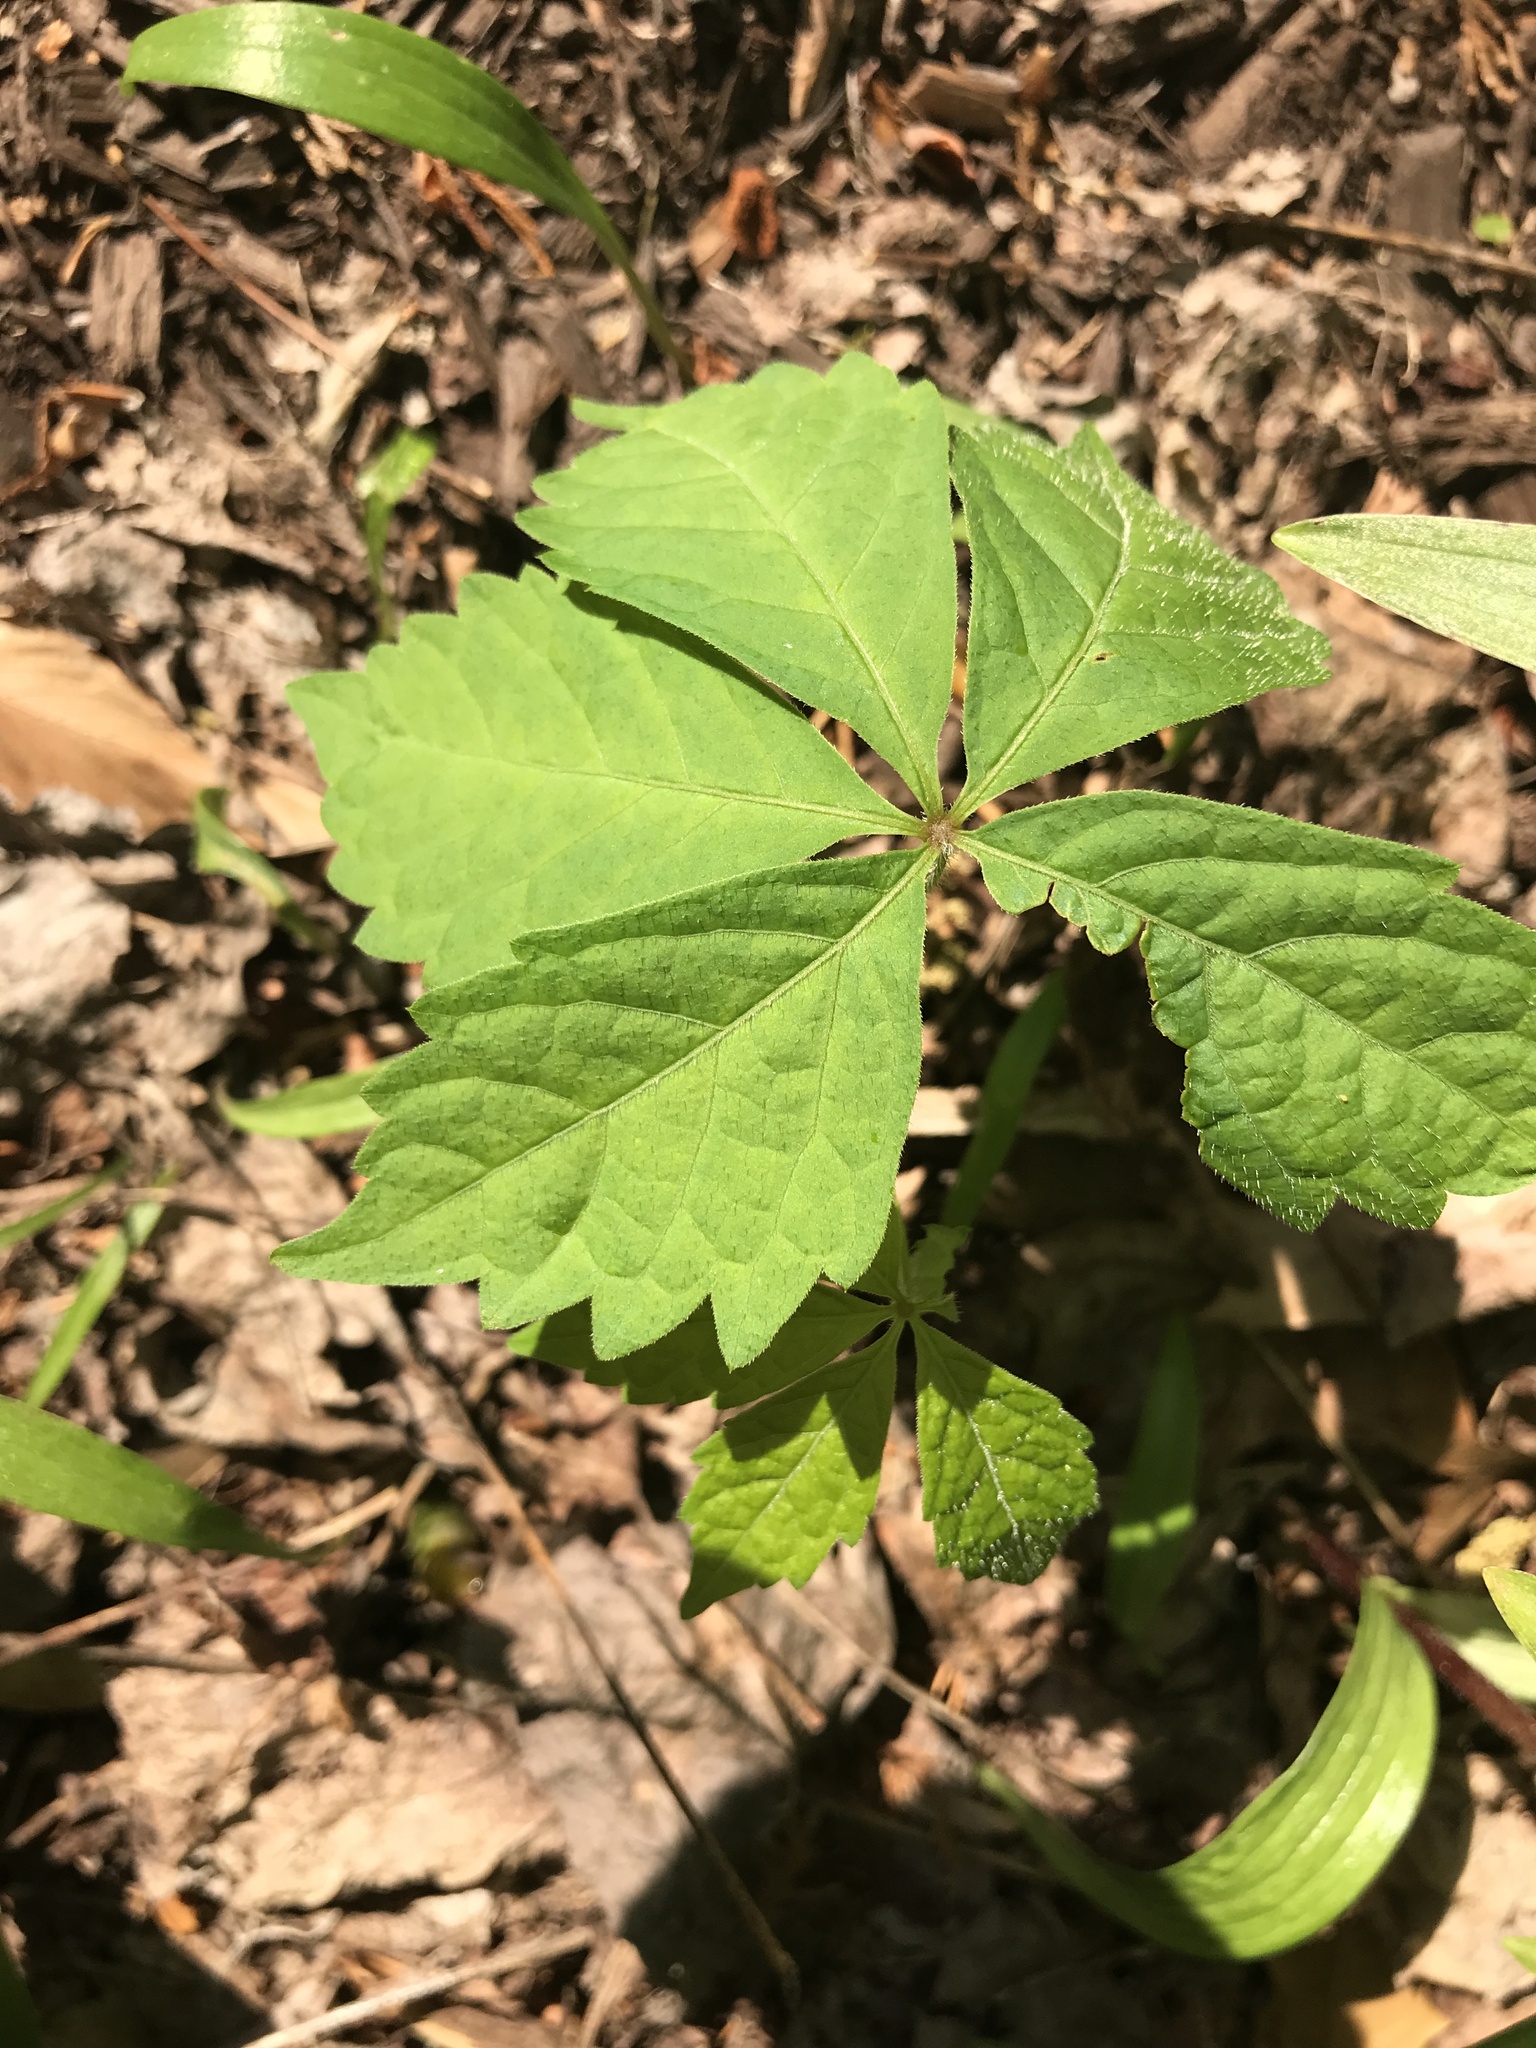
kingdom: Plantae
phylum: Tracheophyta
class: Magnoliopsida
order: Vitales
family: Vitaceae
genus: Parthenocissus
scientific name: Parthenocissus quinquefolia
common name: Virginia-creeper
